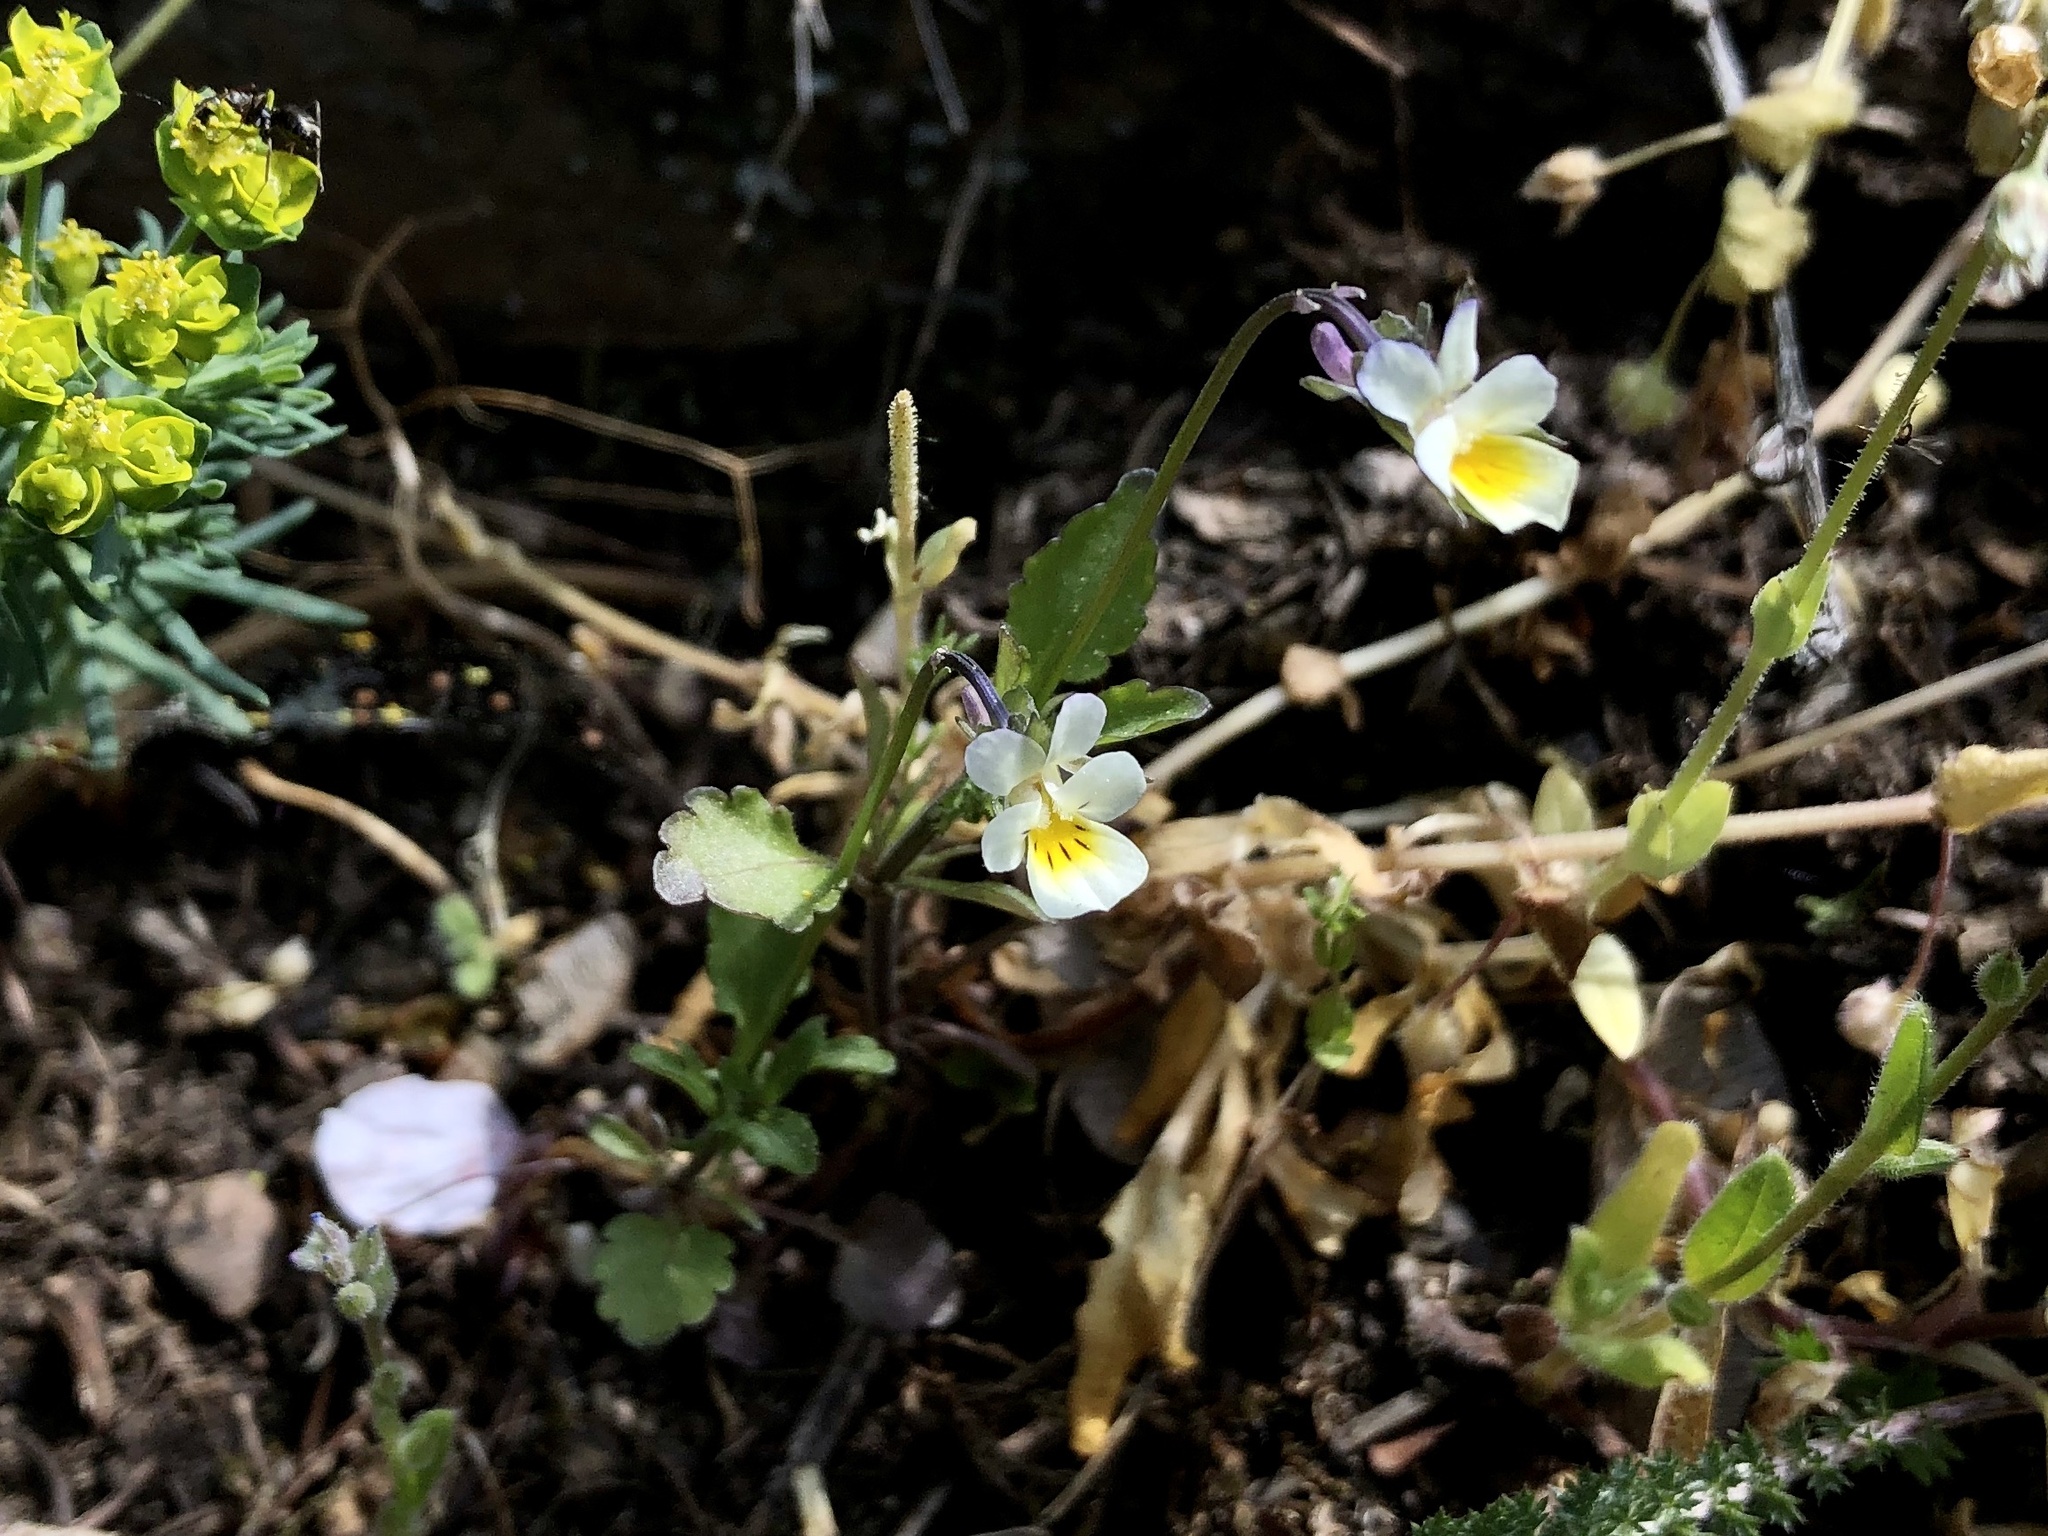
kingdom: Plantae
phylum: Tracheophyta
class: Magnoliopsida
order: Malpighiales
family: Violaceae
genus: Viola
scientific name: Viola arvensis
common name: Field pansy
